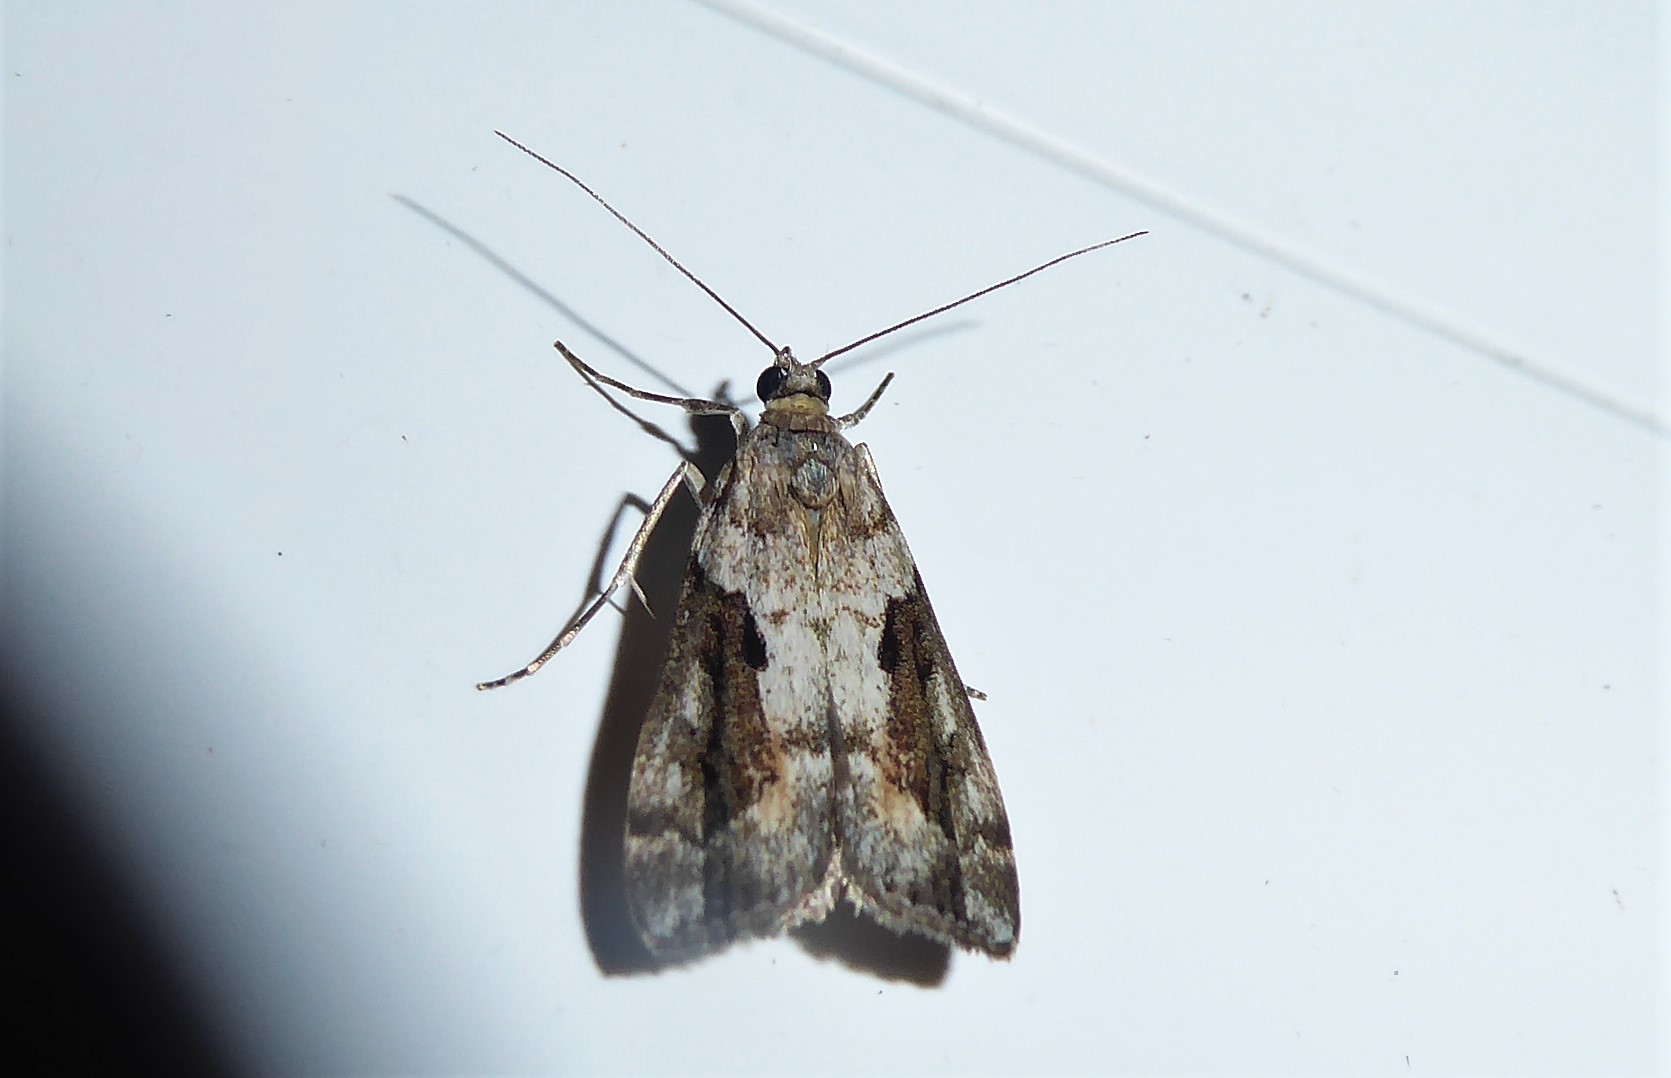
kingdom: Animalia
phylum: Arthropoda
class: Insecta
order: Lepidoptera
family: Crambidae
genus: Eudonia
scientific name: Eudonia submarginalis
